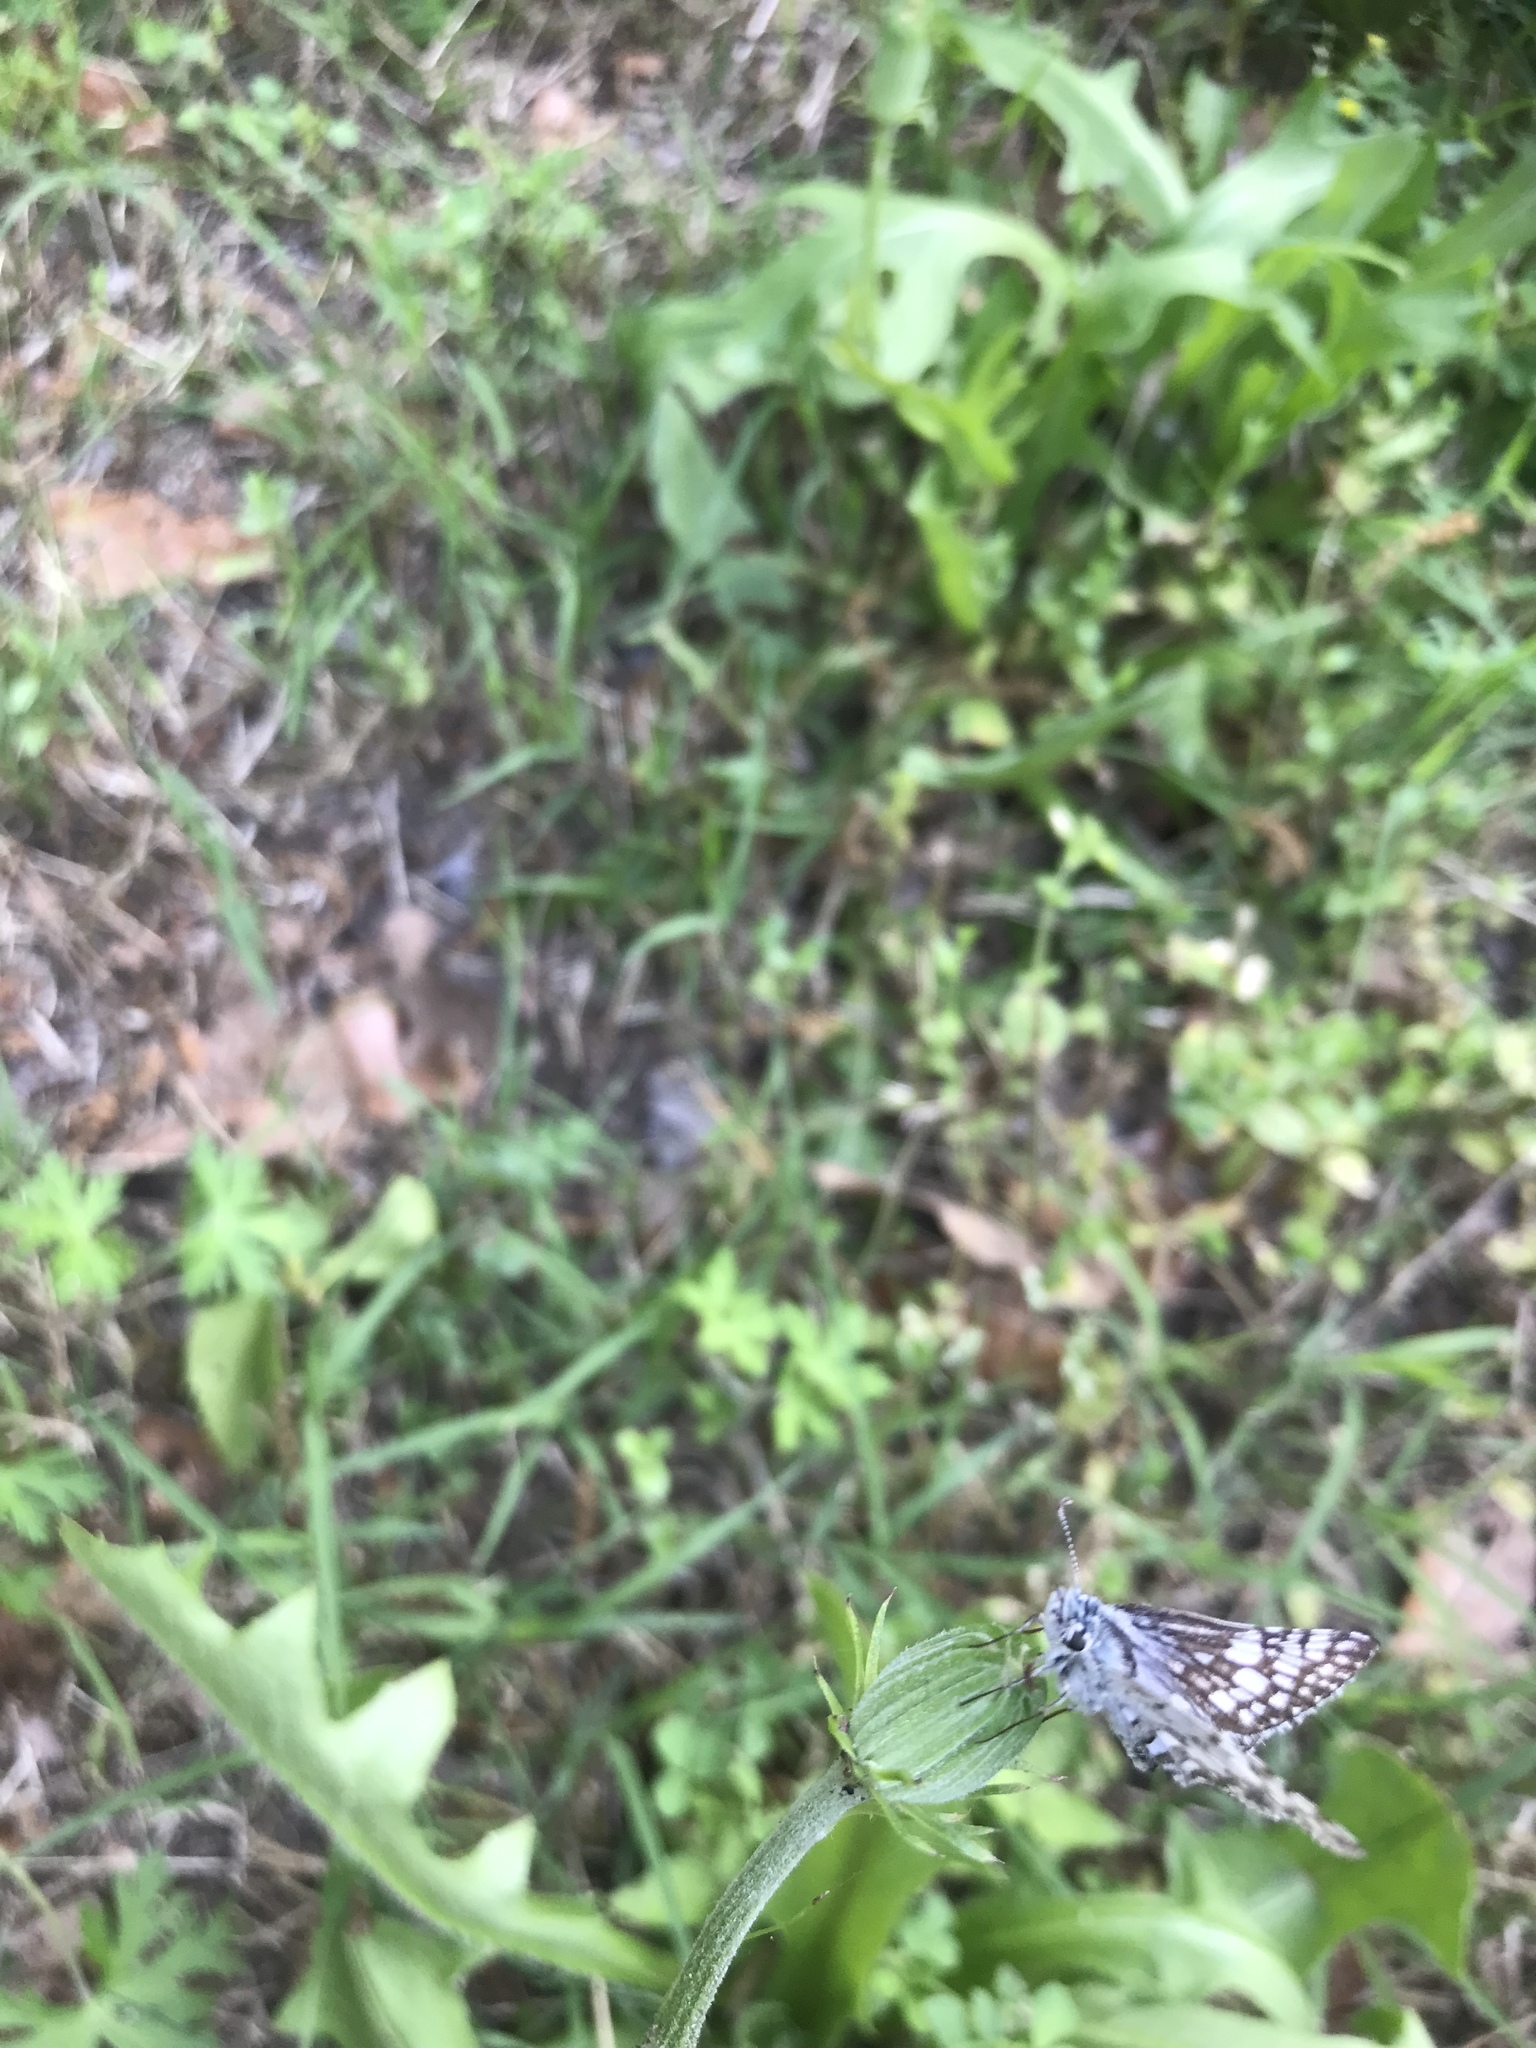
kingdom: Animalia
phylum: Arthropoda
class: Insecta
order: Lepidoptera
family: Hesperiidae
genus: Burnsius
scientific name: Burnsius communis
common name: Common checkered-skipper
